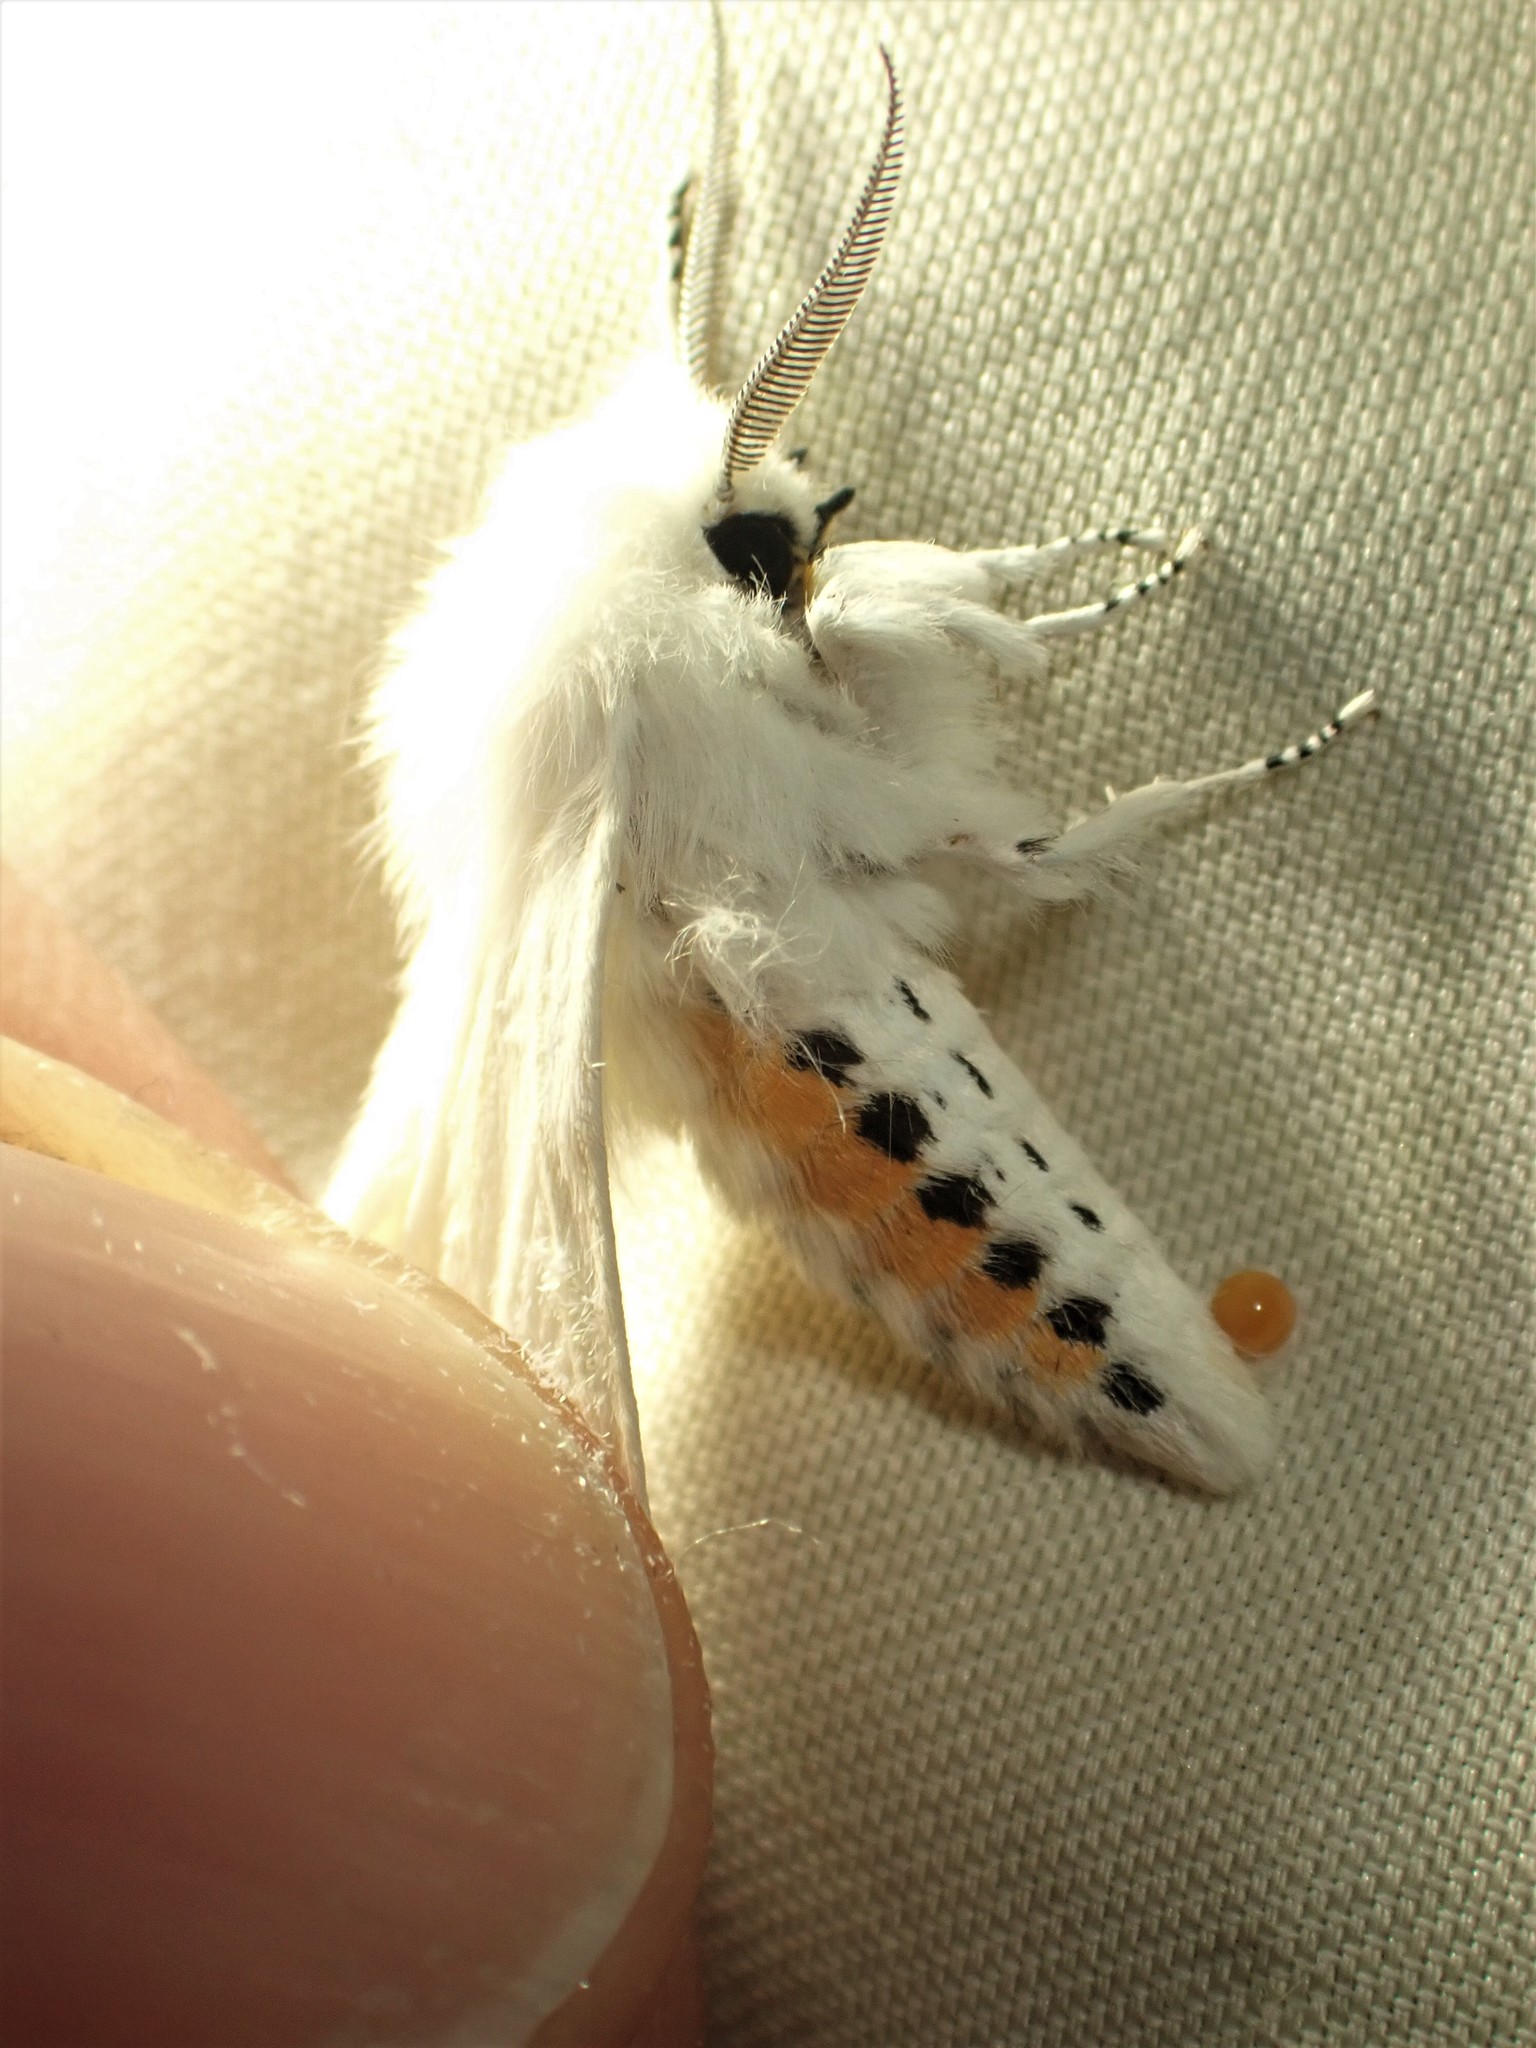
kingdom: Animalia
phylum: Arthropoda
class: Insecta
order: Lepidoptera
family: Erebidae
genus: Spilosoma
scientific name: Spilosoma virginica
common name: Virginia tiger moth
